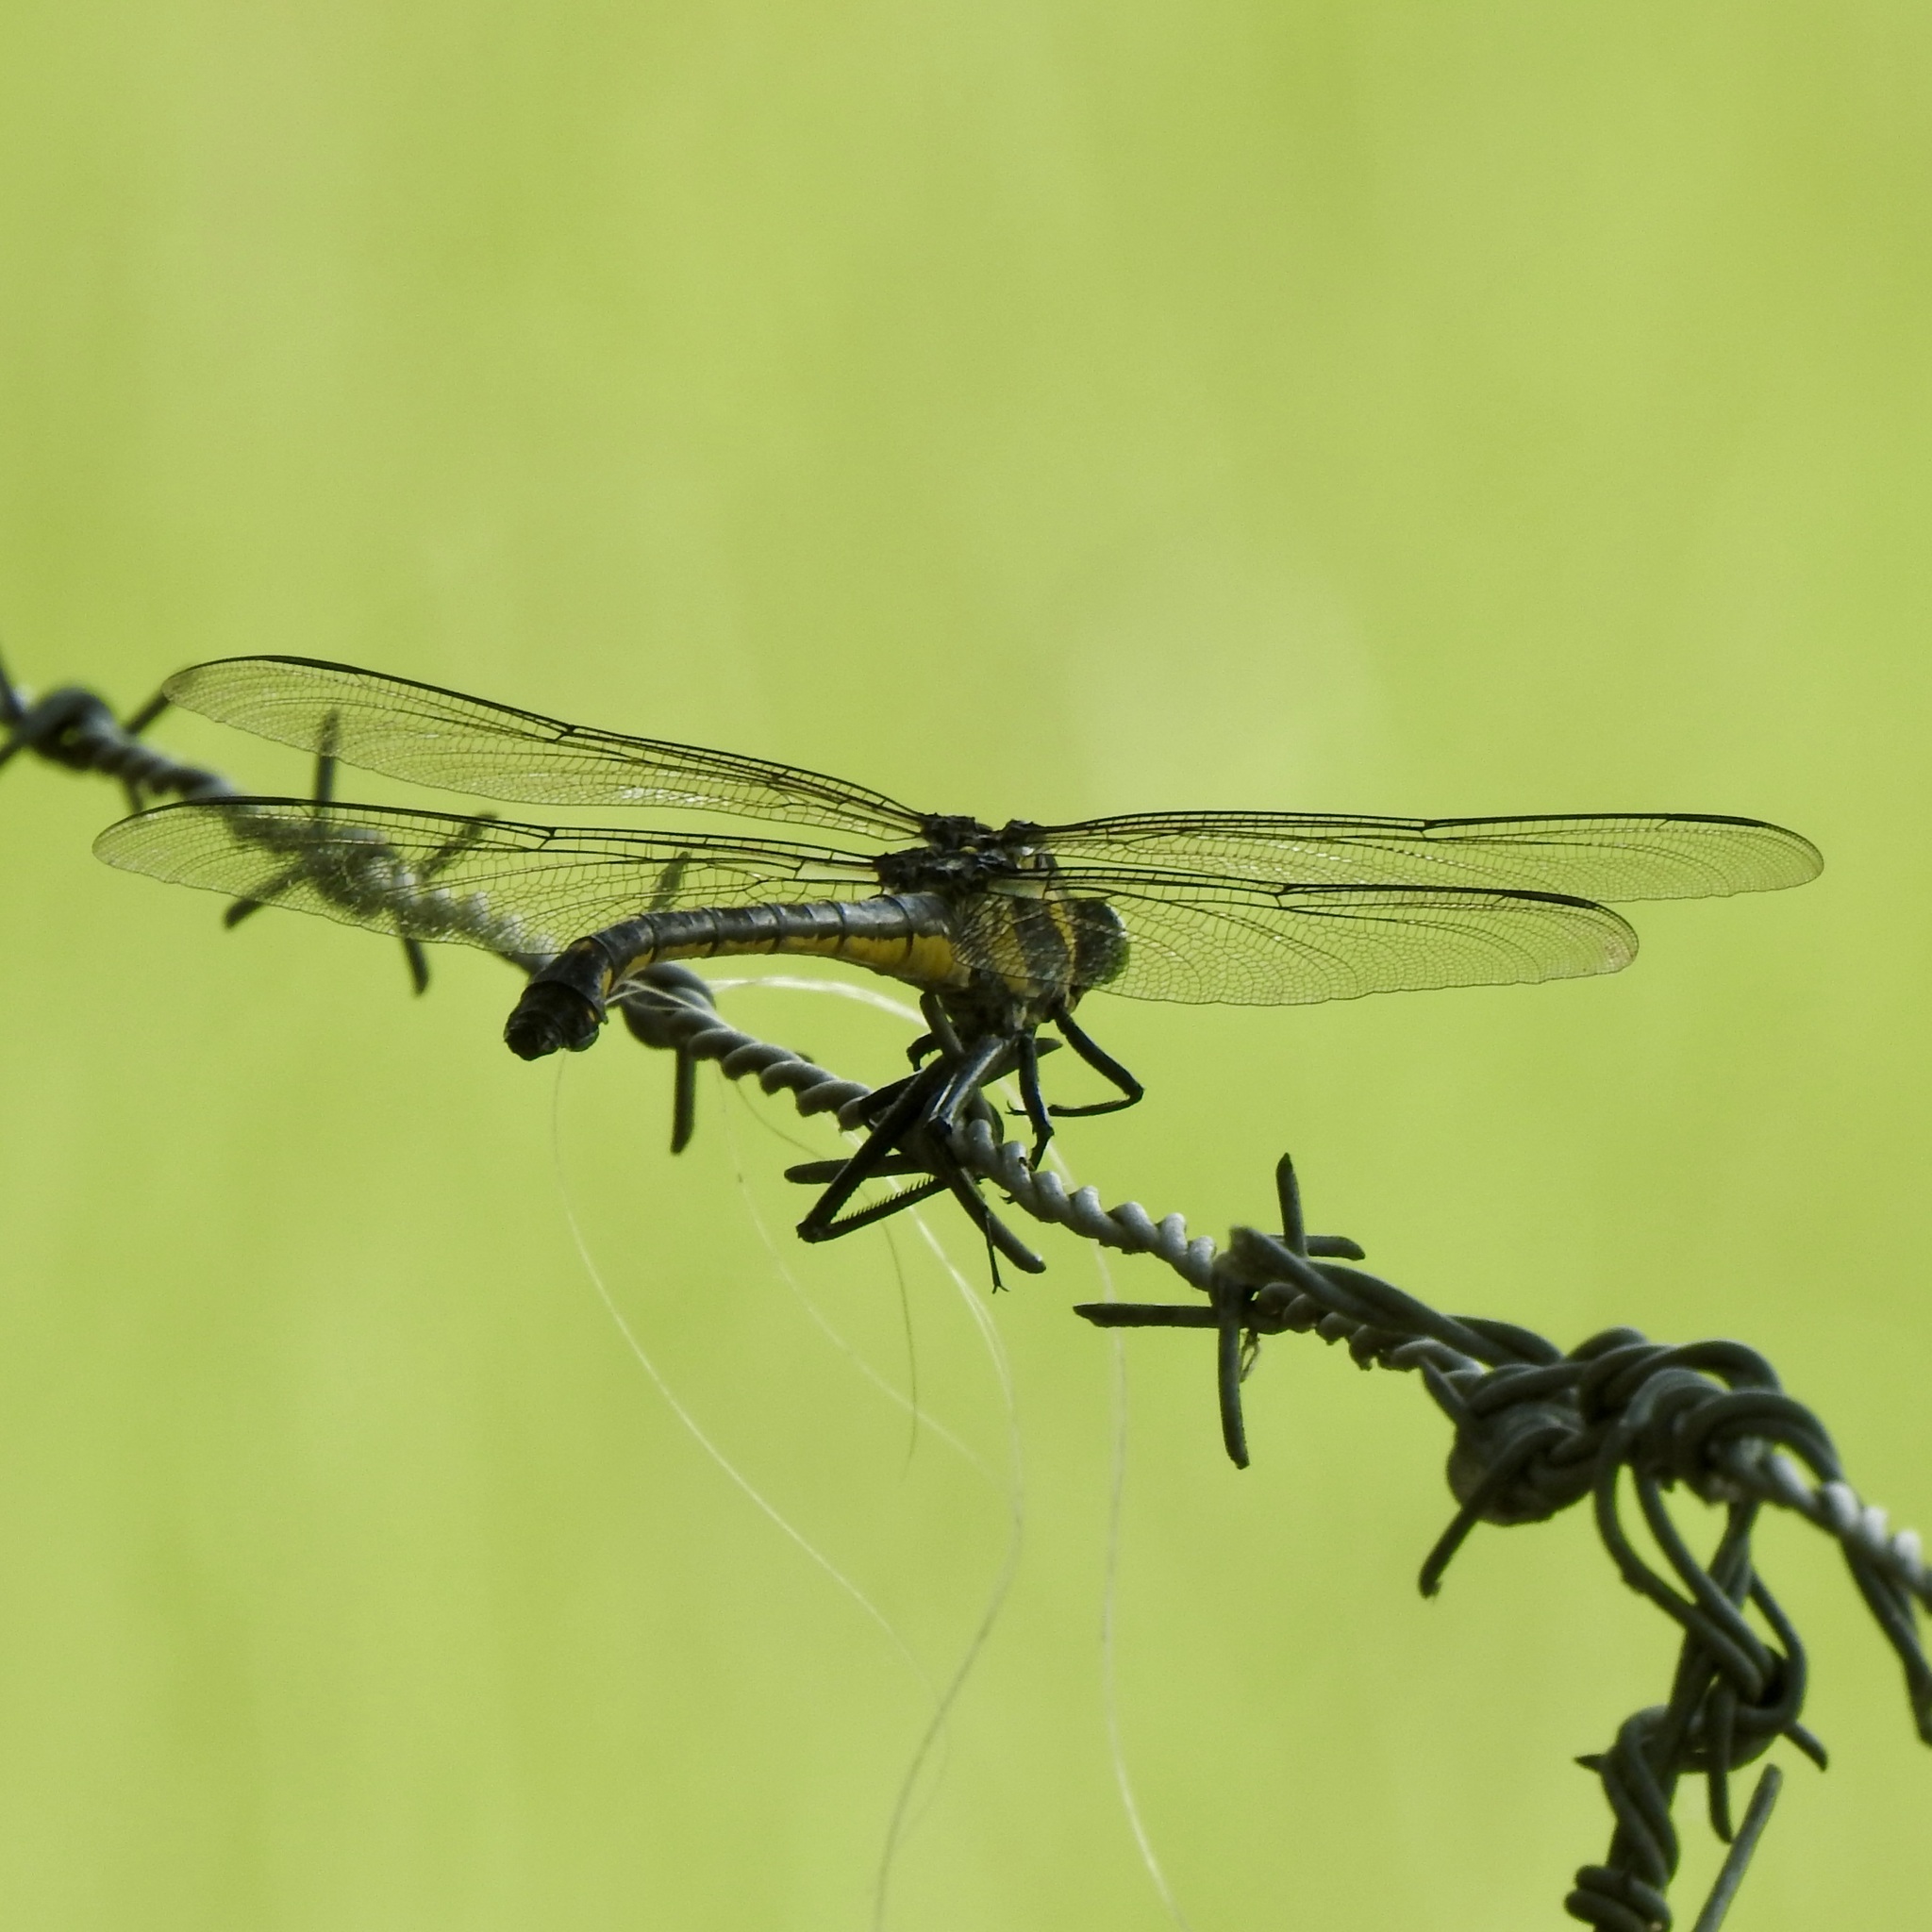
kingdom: Animalia
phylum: Arthropoda
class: Insecta
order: Odonata
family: Gomphidae
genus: Hagenius
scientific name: Hagenius brevistylus
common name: Dragonhunter
